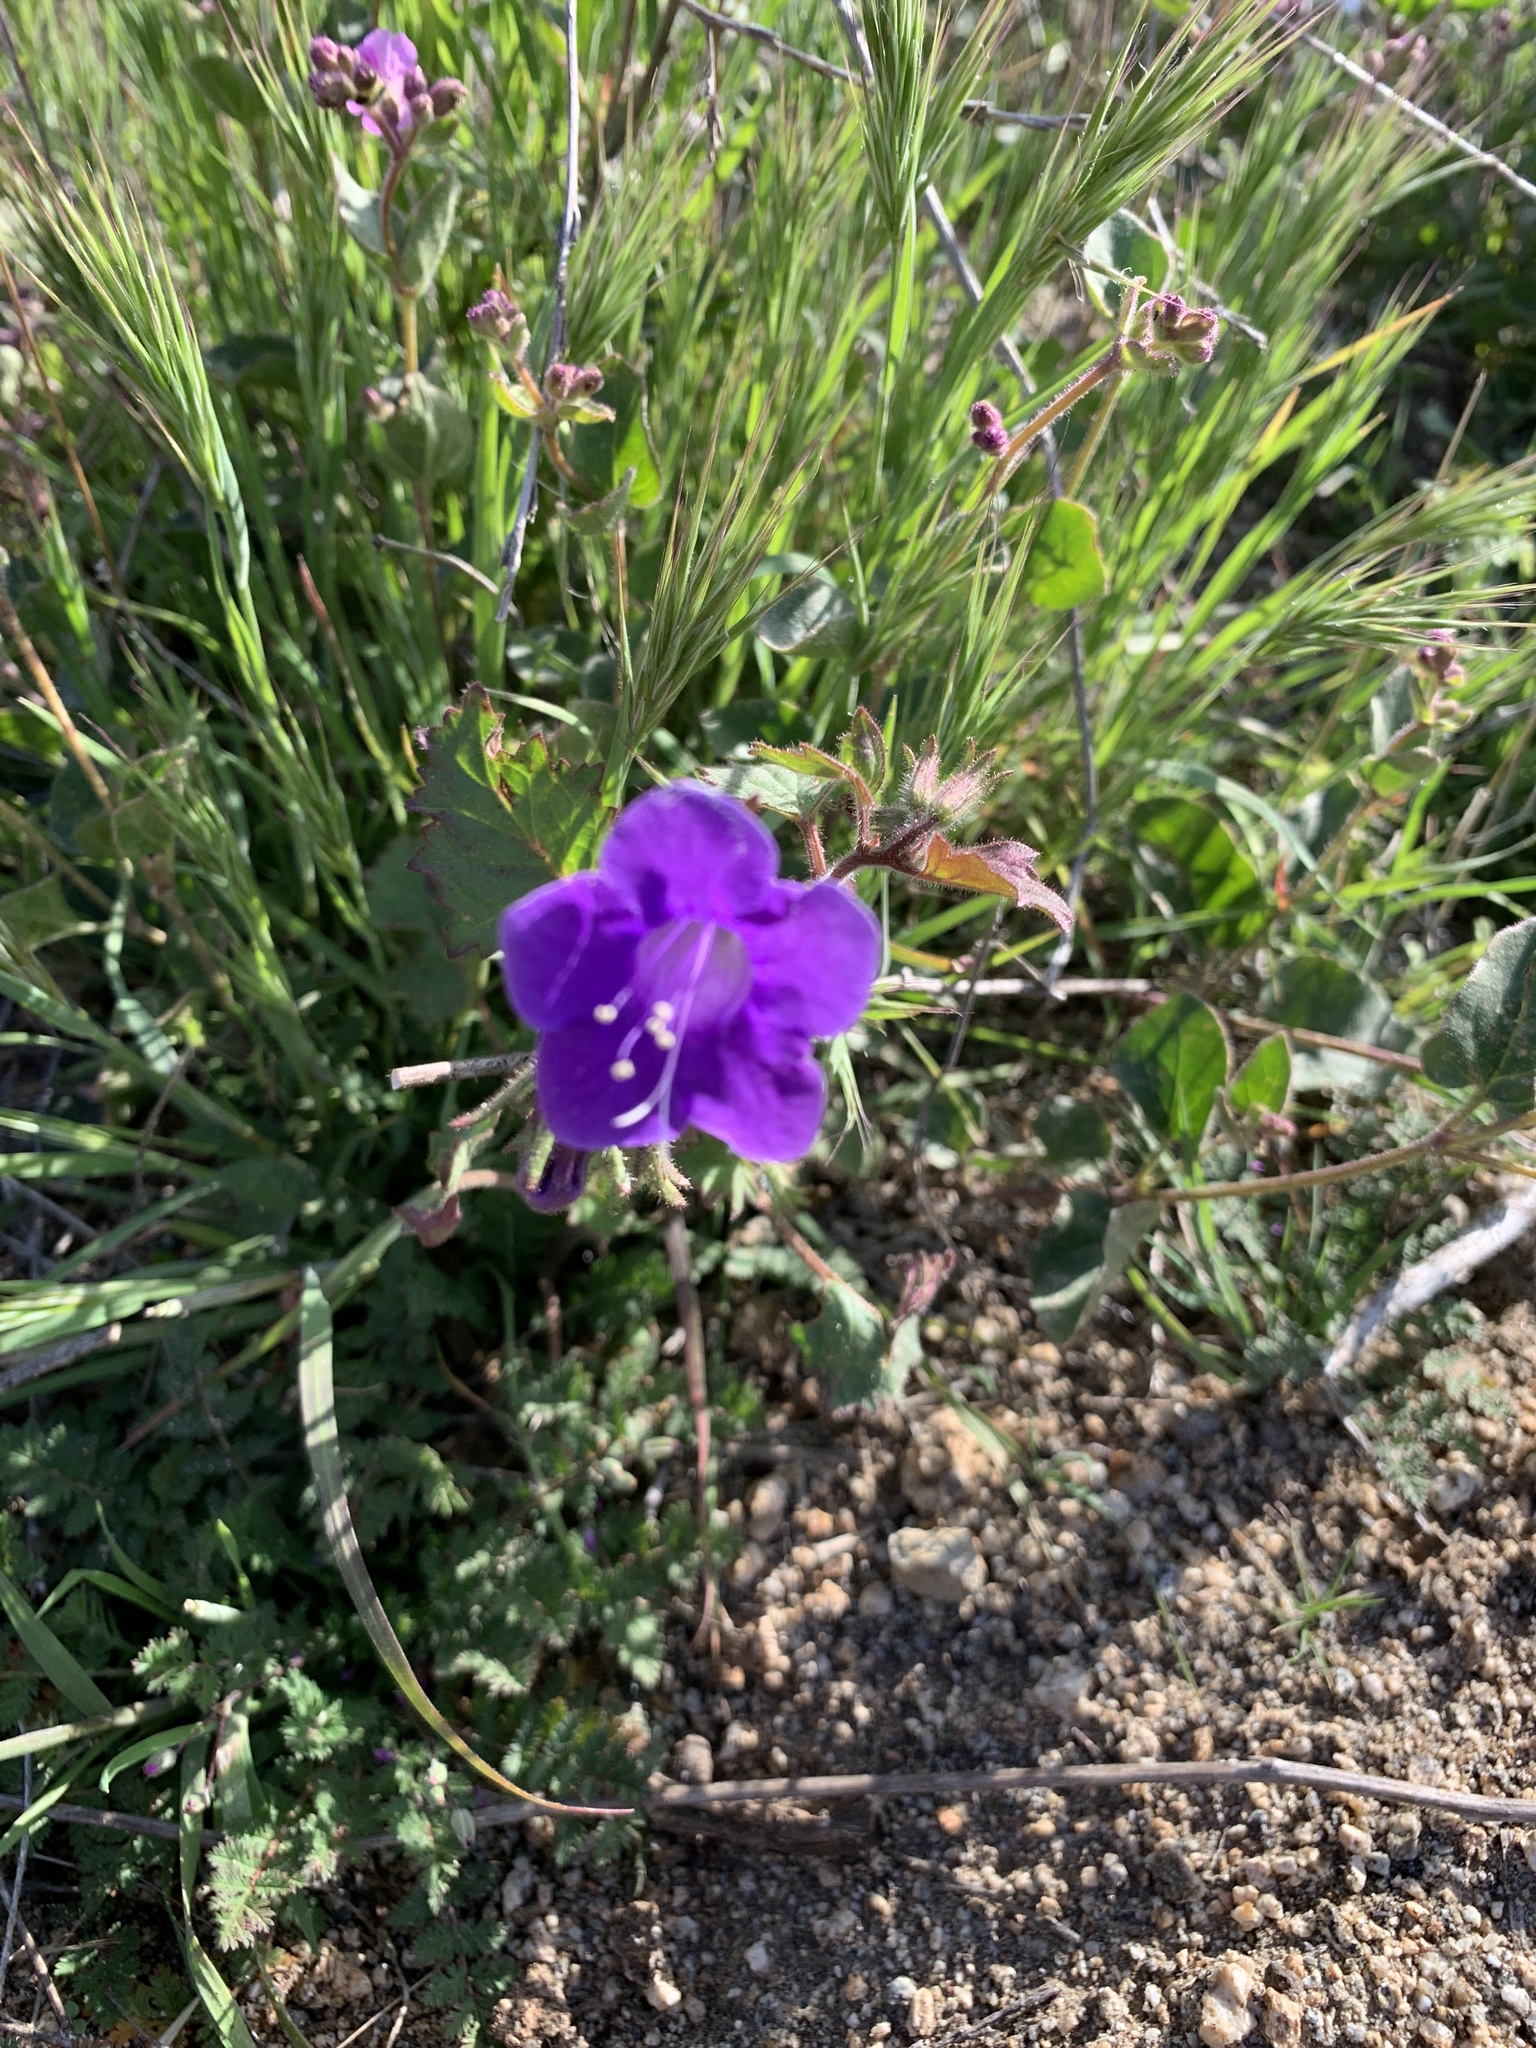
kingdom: Plantae
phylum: Tracheophyta
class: Magnoliopsida
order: Boraginales
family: Hydrophyllaceae
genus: Phacelia
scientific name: Phacelia minor
